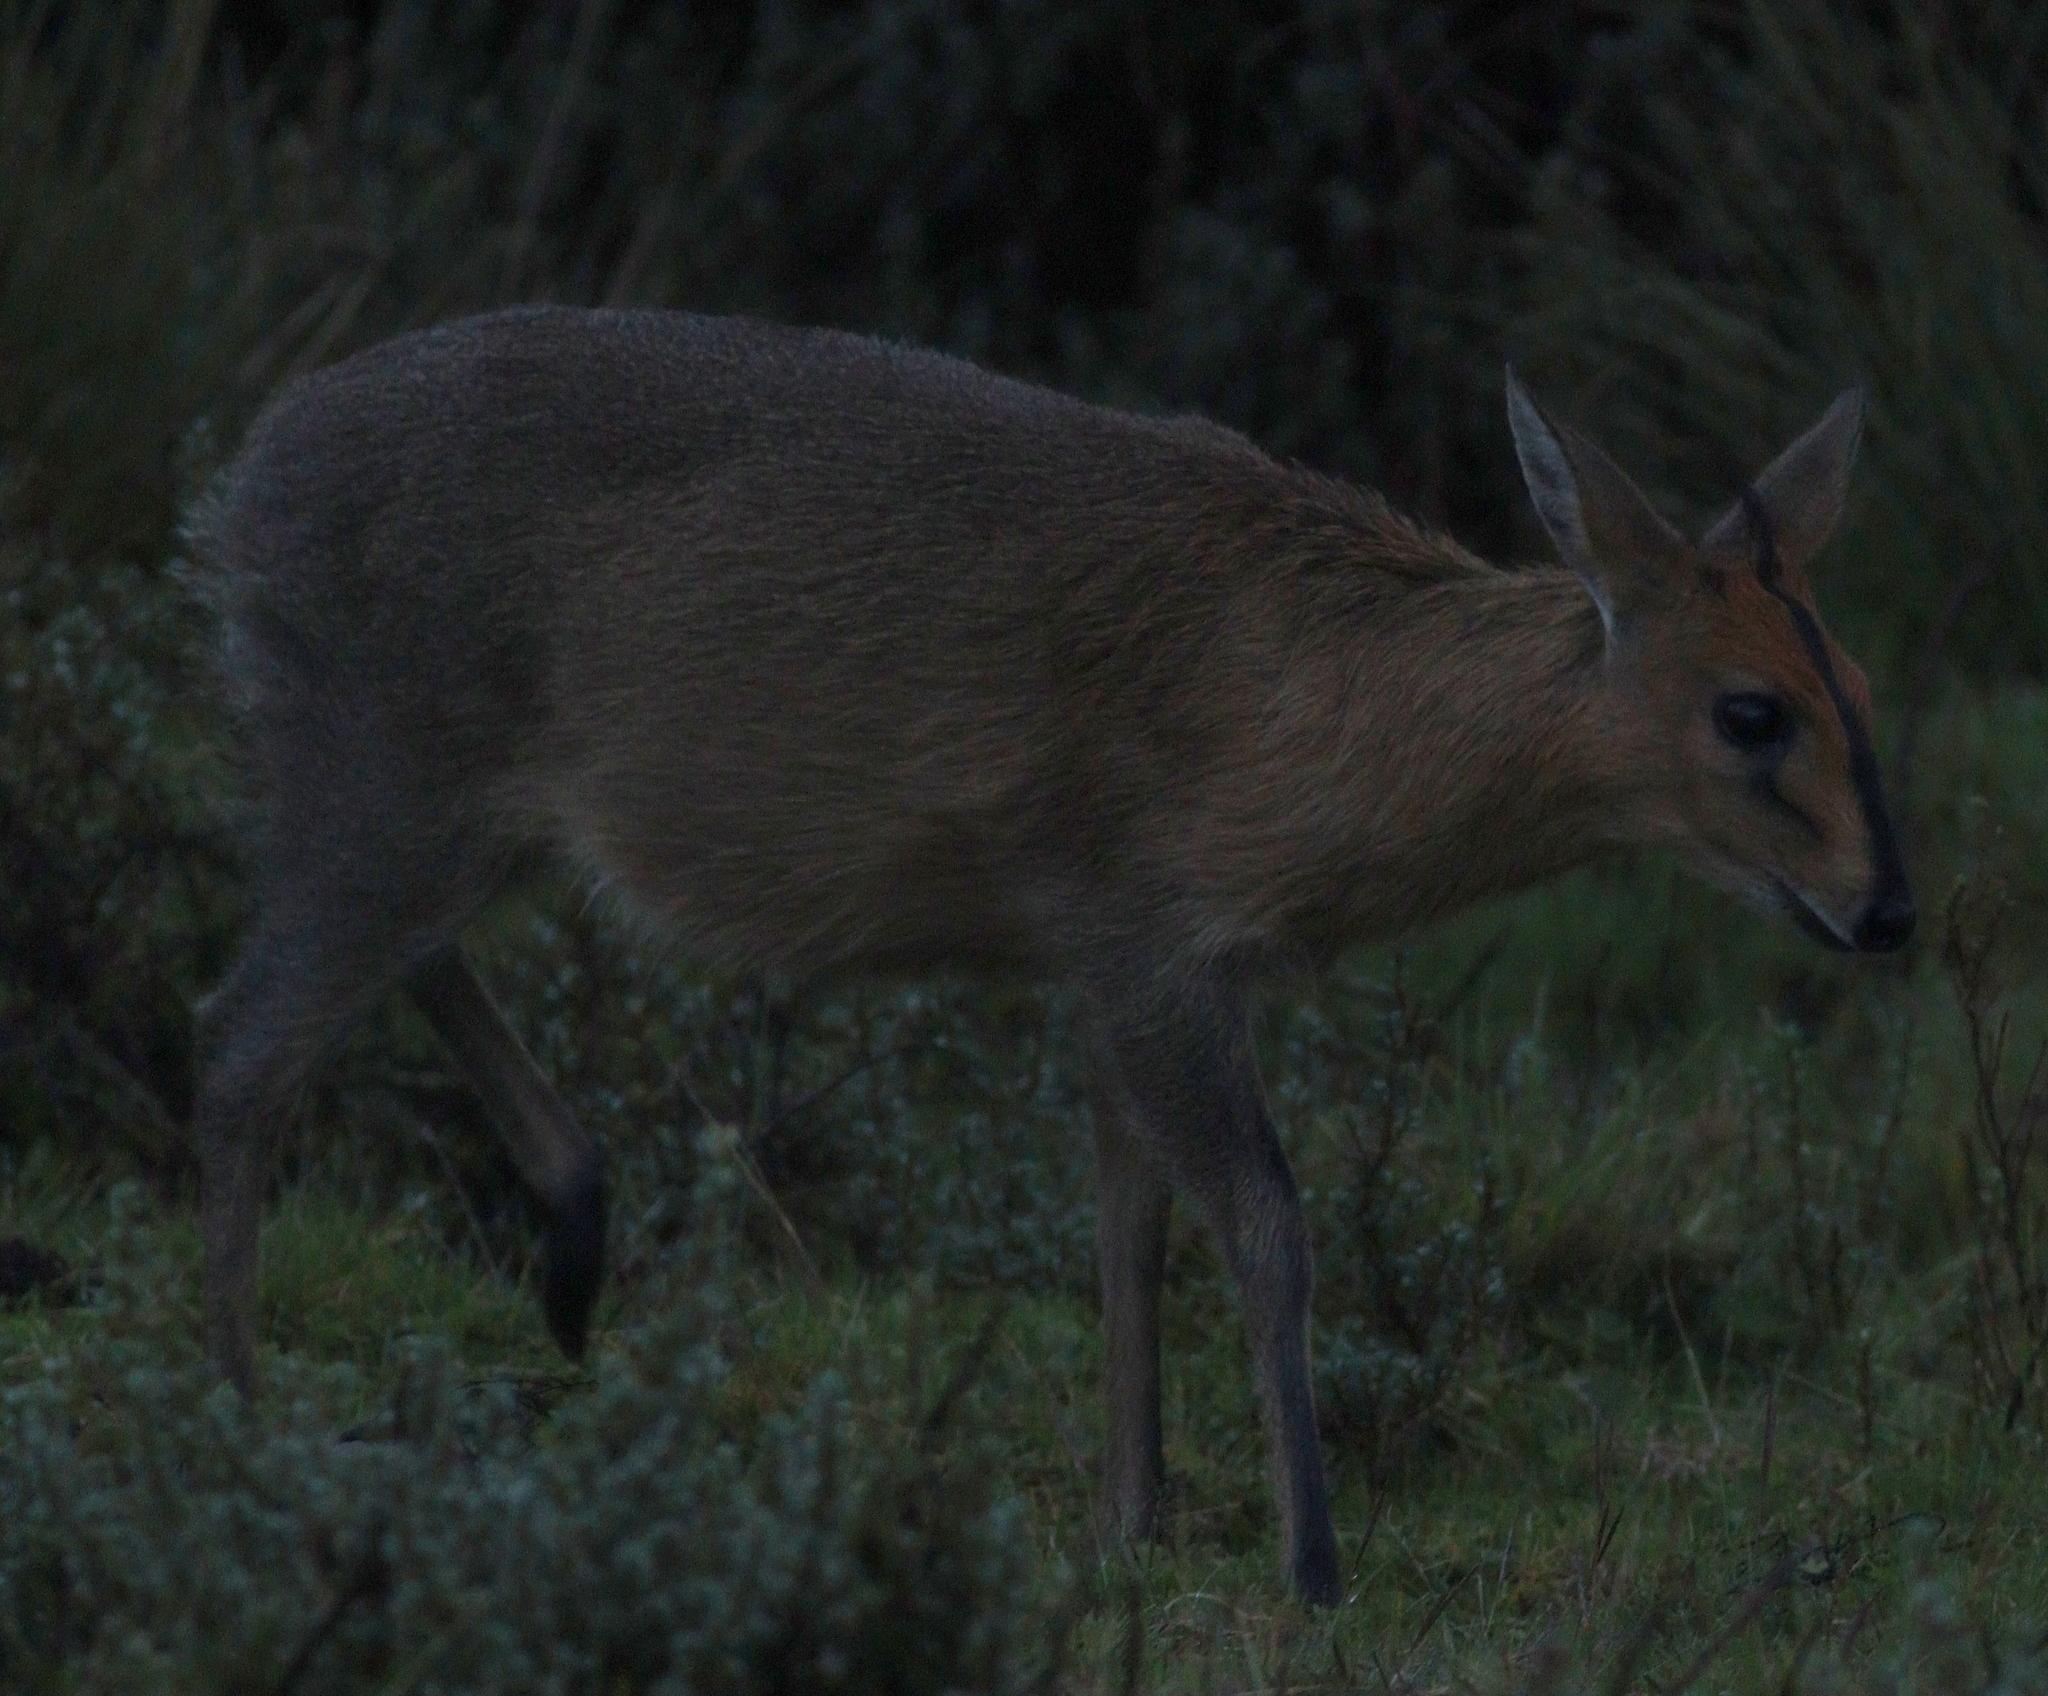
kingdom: Animalia
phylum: Chordata
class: Mammalia
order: Artiodactyla
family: Bovidae
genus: Sylvicapra
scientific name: Sylvicapra grimmia
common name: Bush duiker
